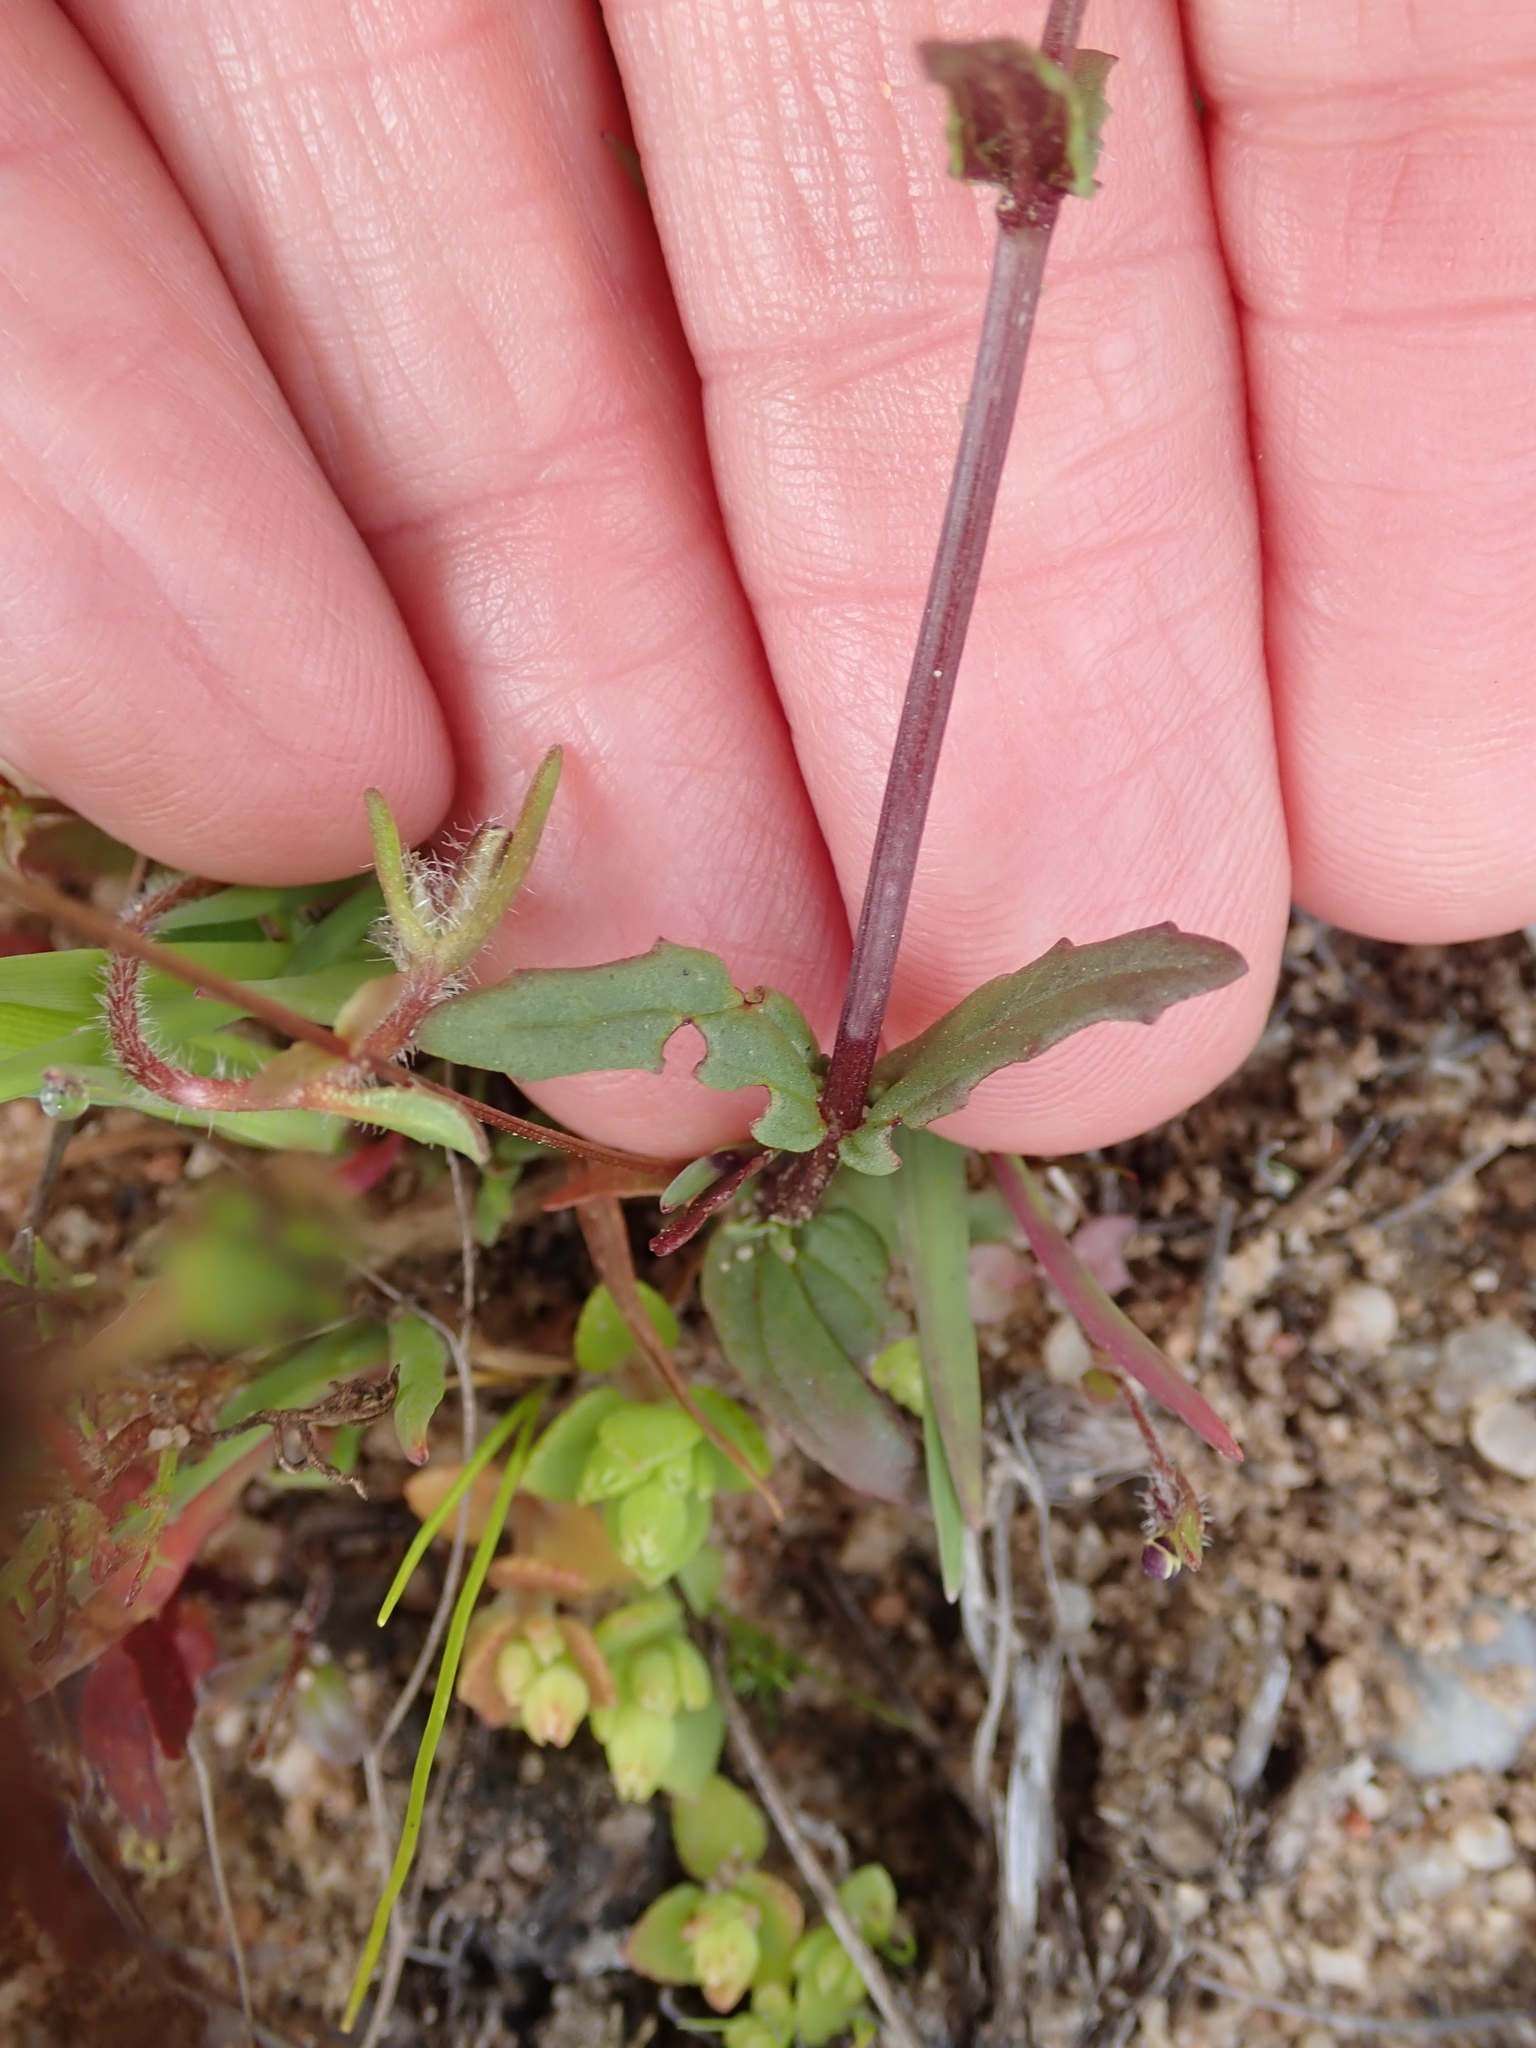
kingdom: Plantae
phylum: Tracheophyta
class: Magnoliopsida
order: Lamiales
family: Scrophulariaceae
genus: Nemesia
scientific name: Nemesia cheiranthus
